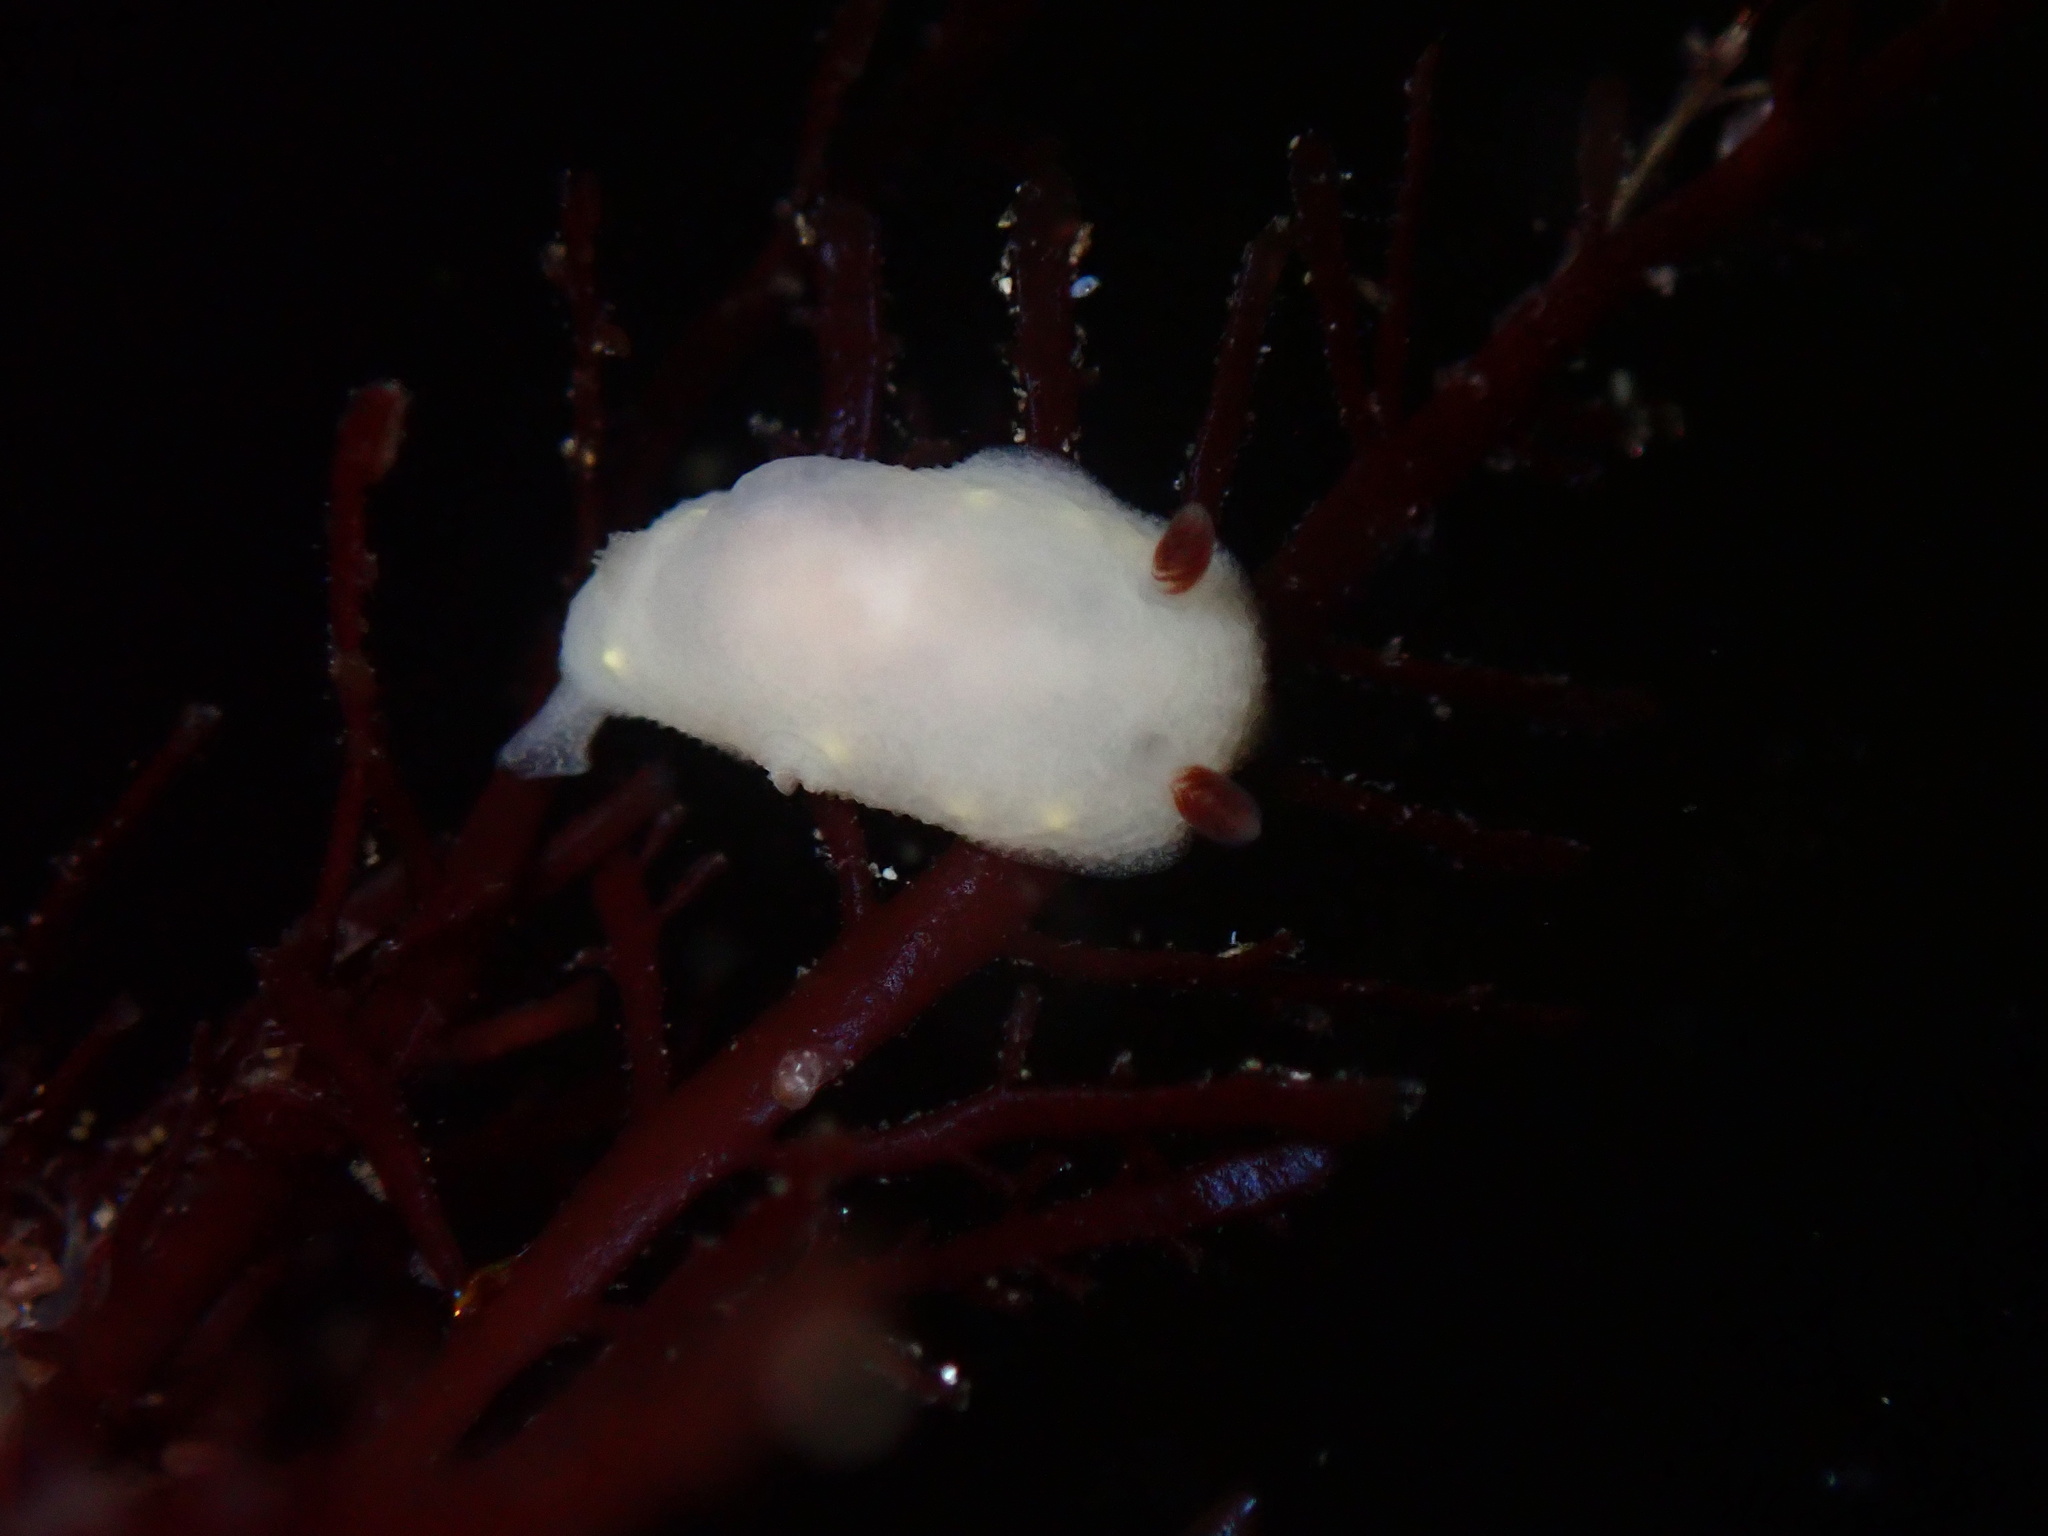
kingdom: Animalia
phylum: Mollusca
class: Gastropoda
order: Nudibranchia
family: Cadlinidae
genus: Cadlina
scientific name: Cadlina flavomaculata
